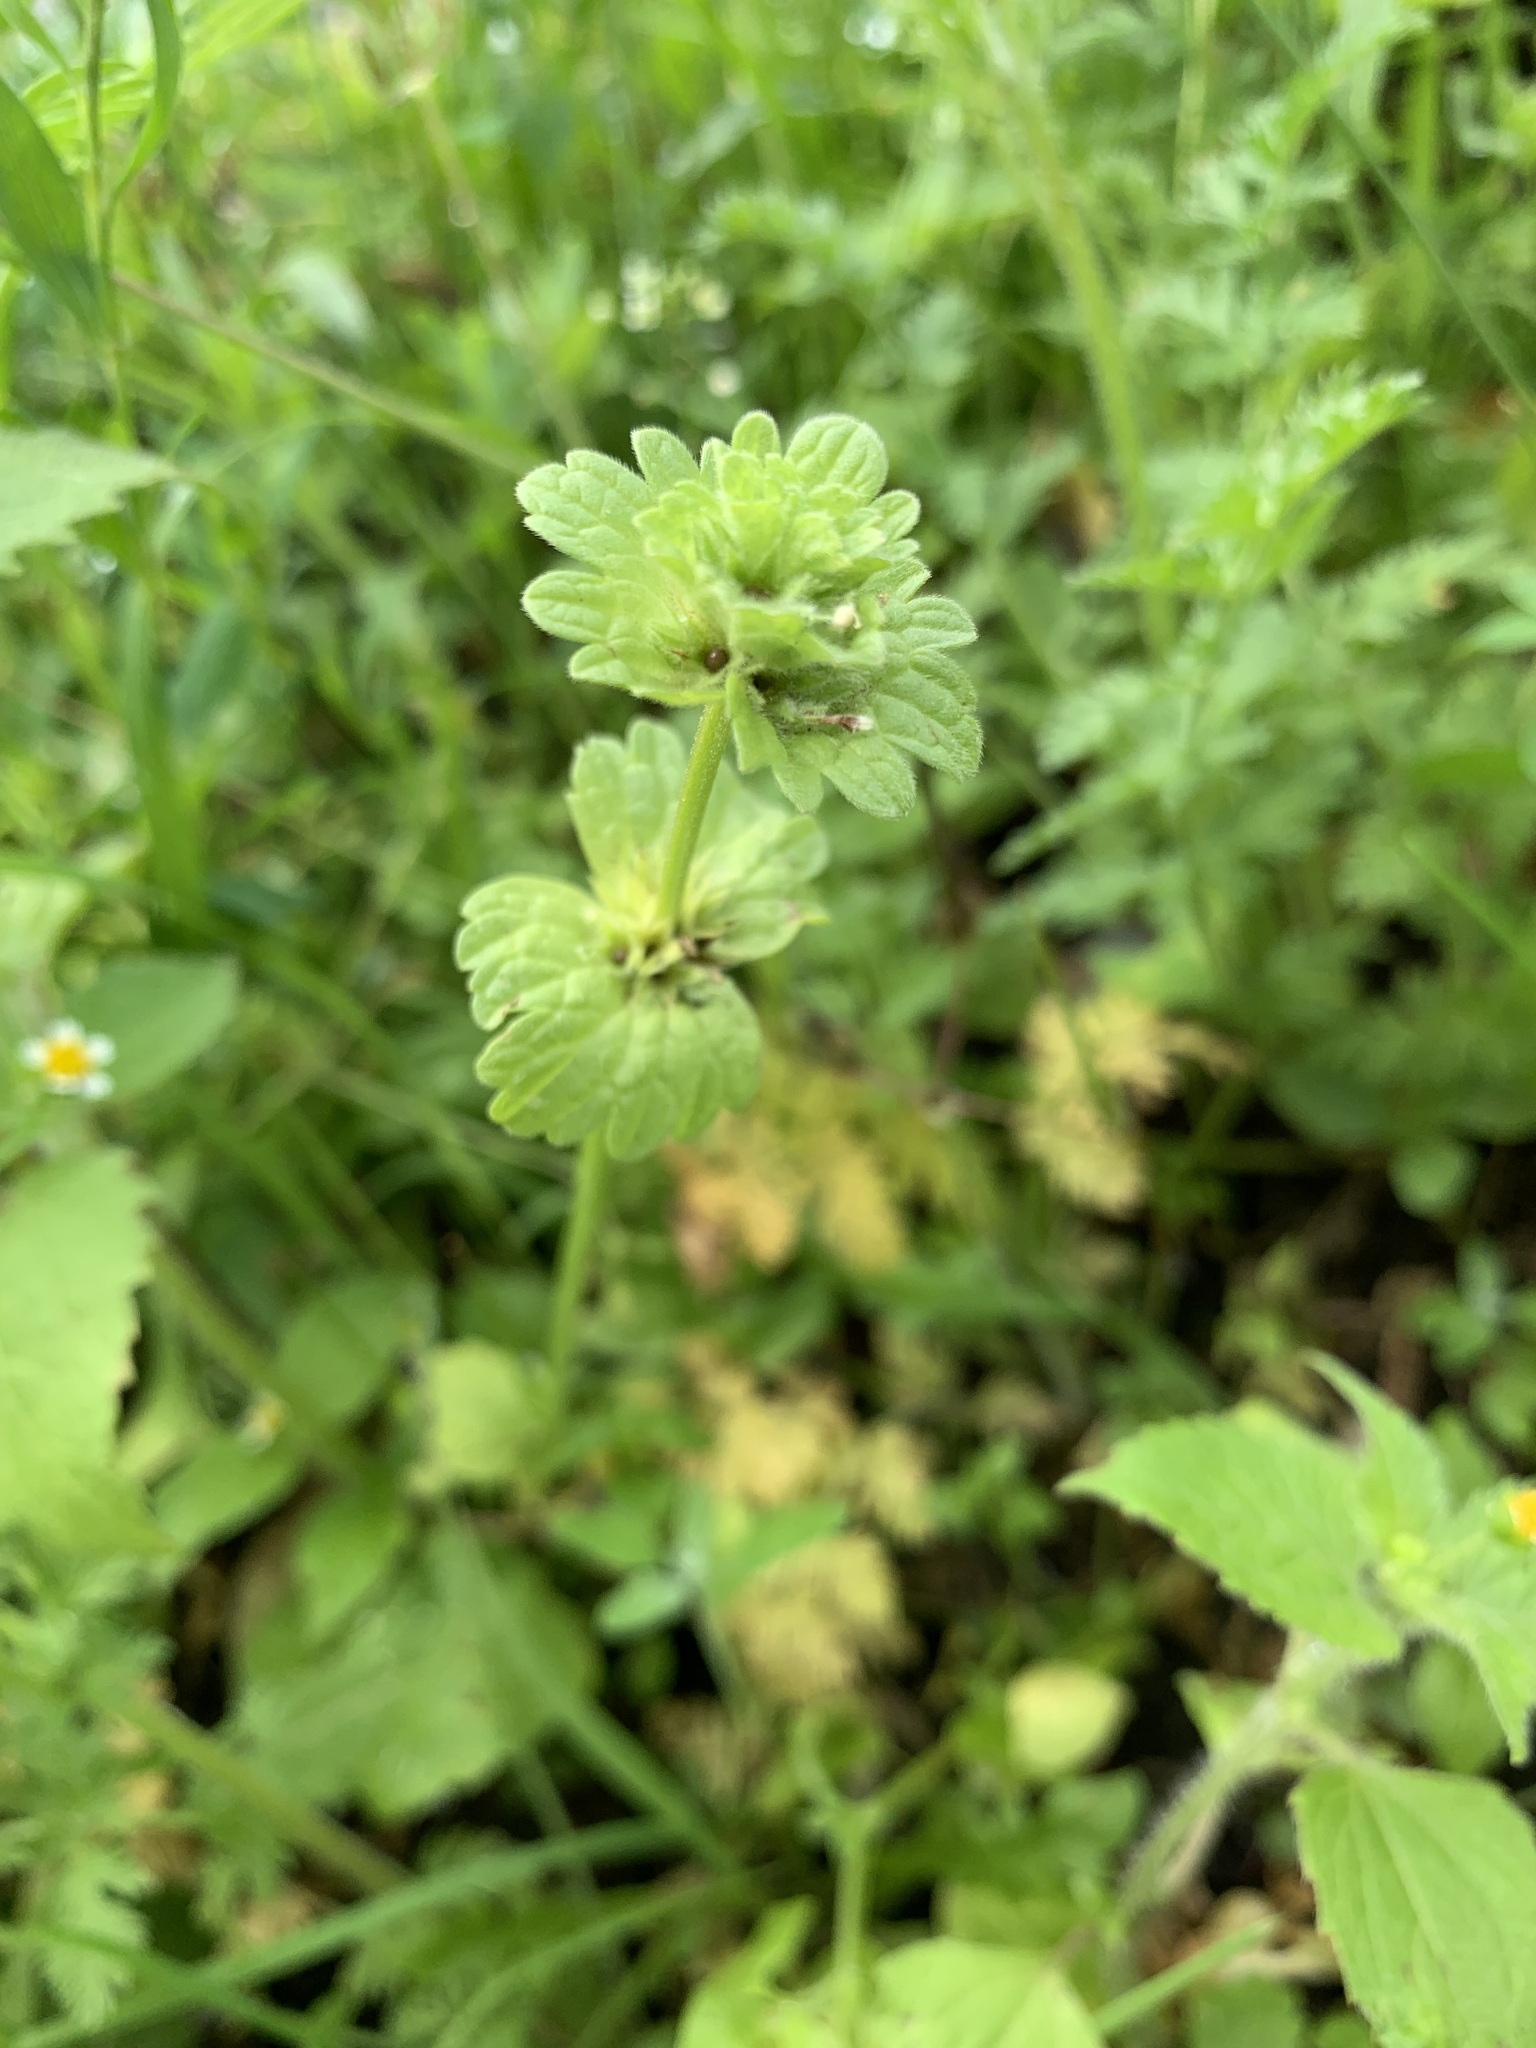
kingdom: Plantae
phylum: Tracheophyta
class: Magnoliopsida
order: Lamiales
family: Lamiaceae
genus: Lamium
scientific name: Lamium amplexicaule
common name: Henbit dead-nettle
